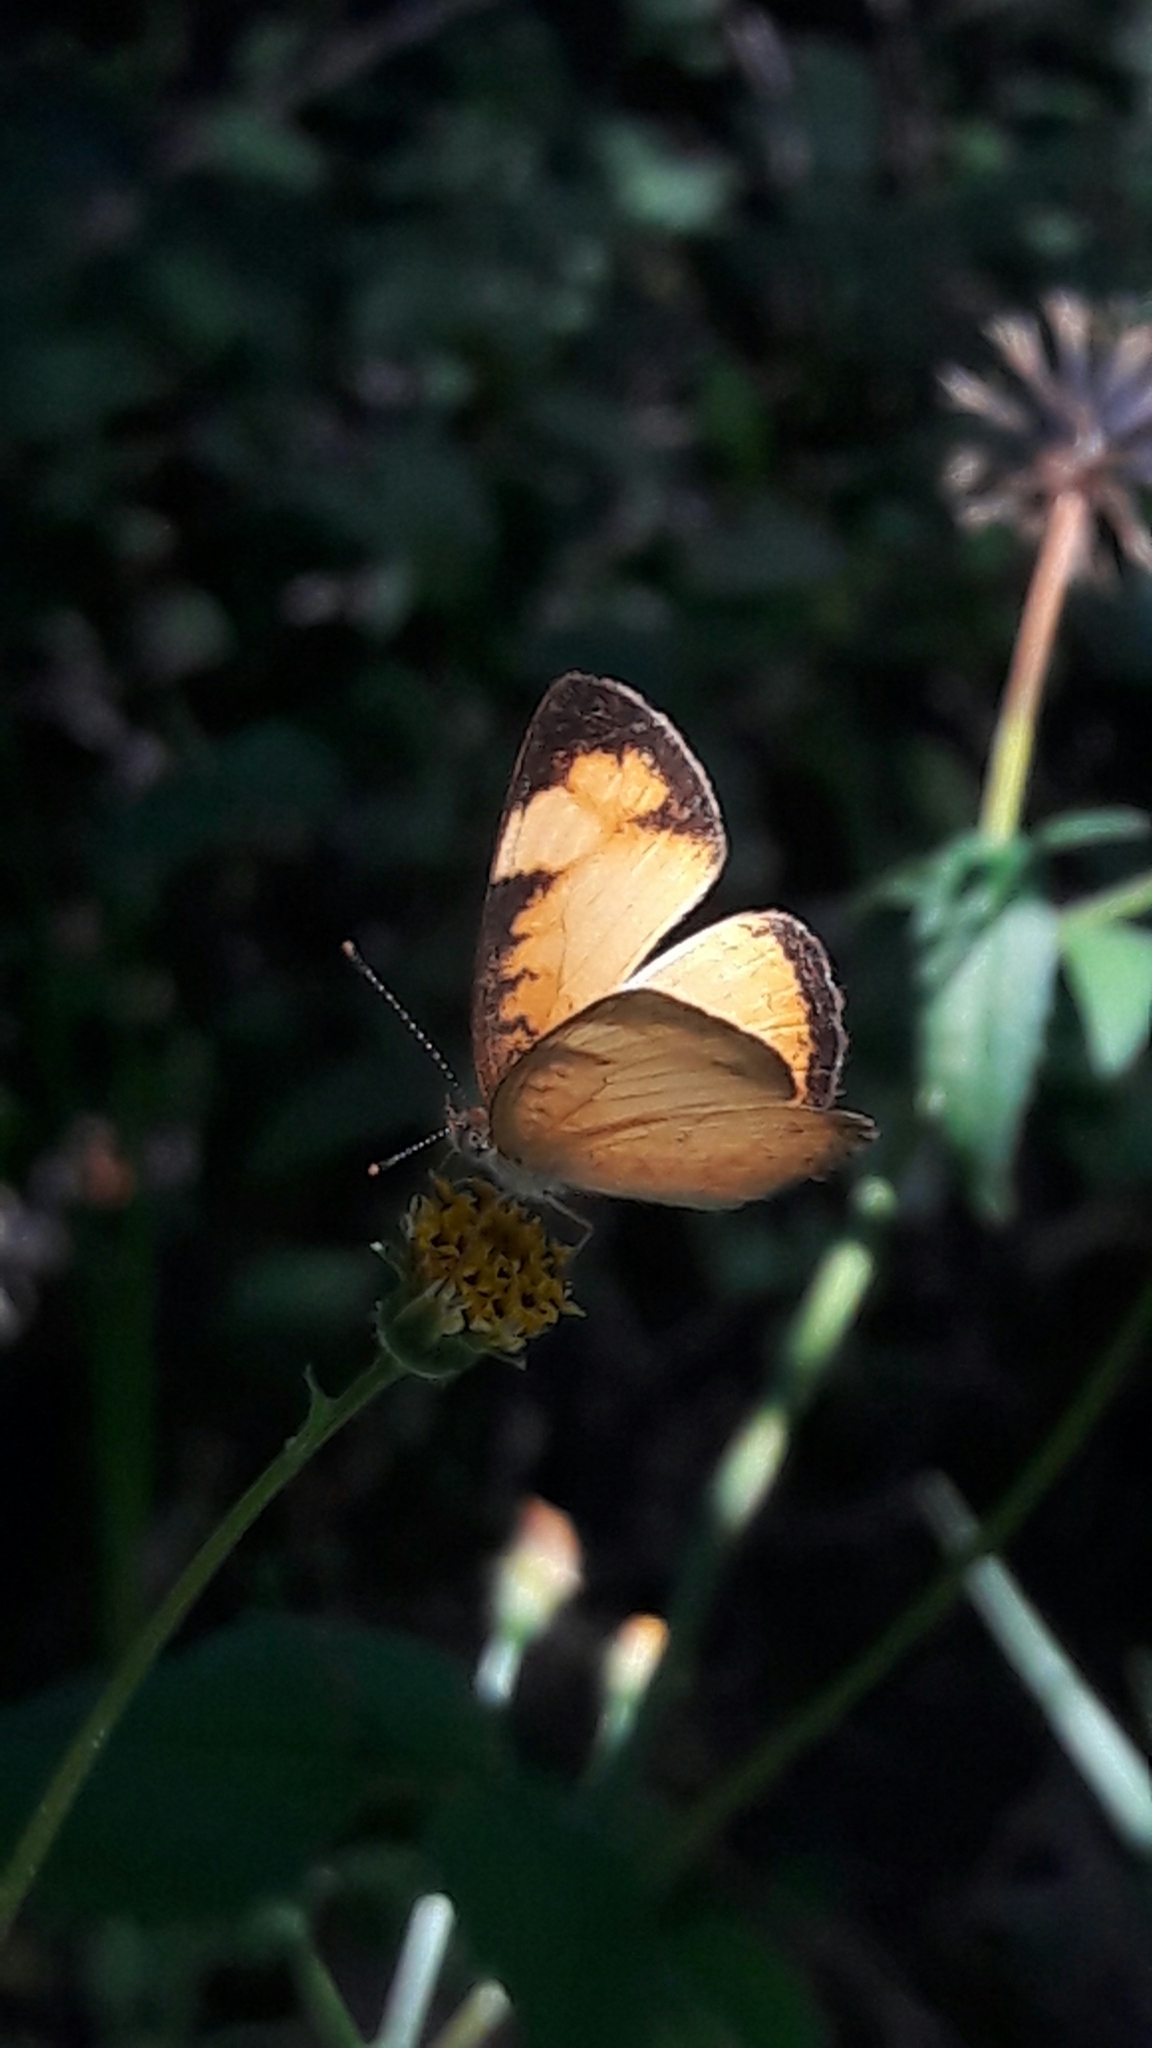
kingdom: Animalia
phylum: Arthropoda
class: Insecta
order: Lepidoptera
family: Nymphalidae
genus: Tegosa
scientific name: Tegosa claudina
